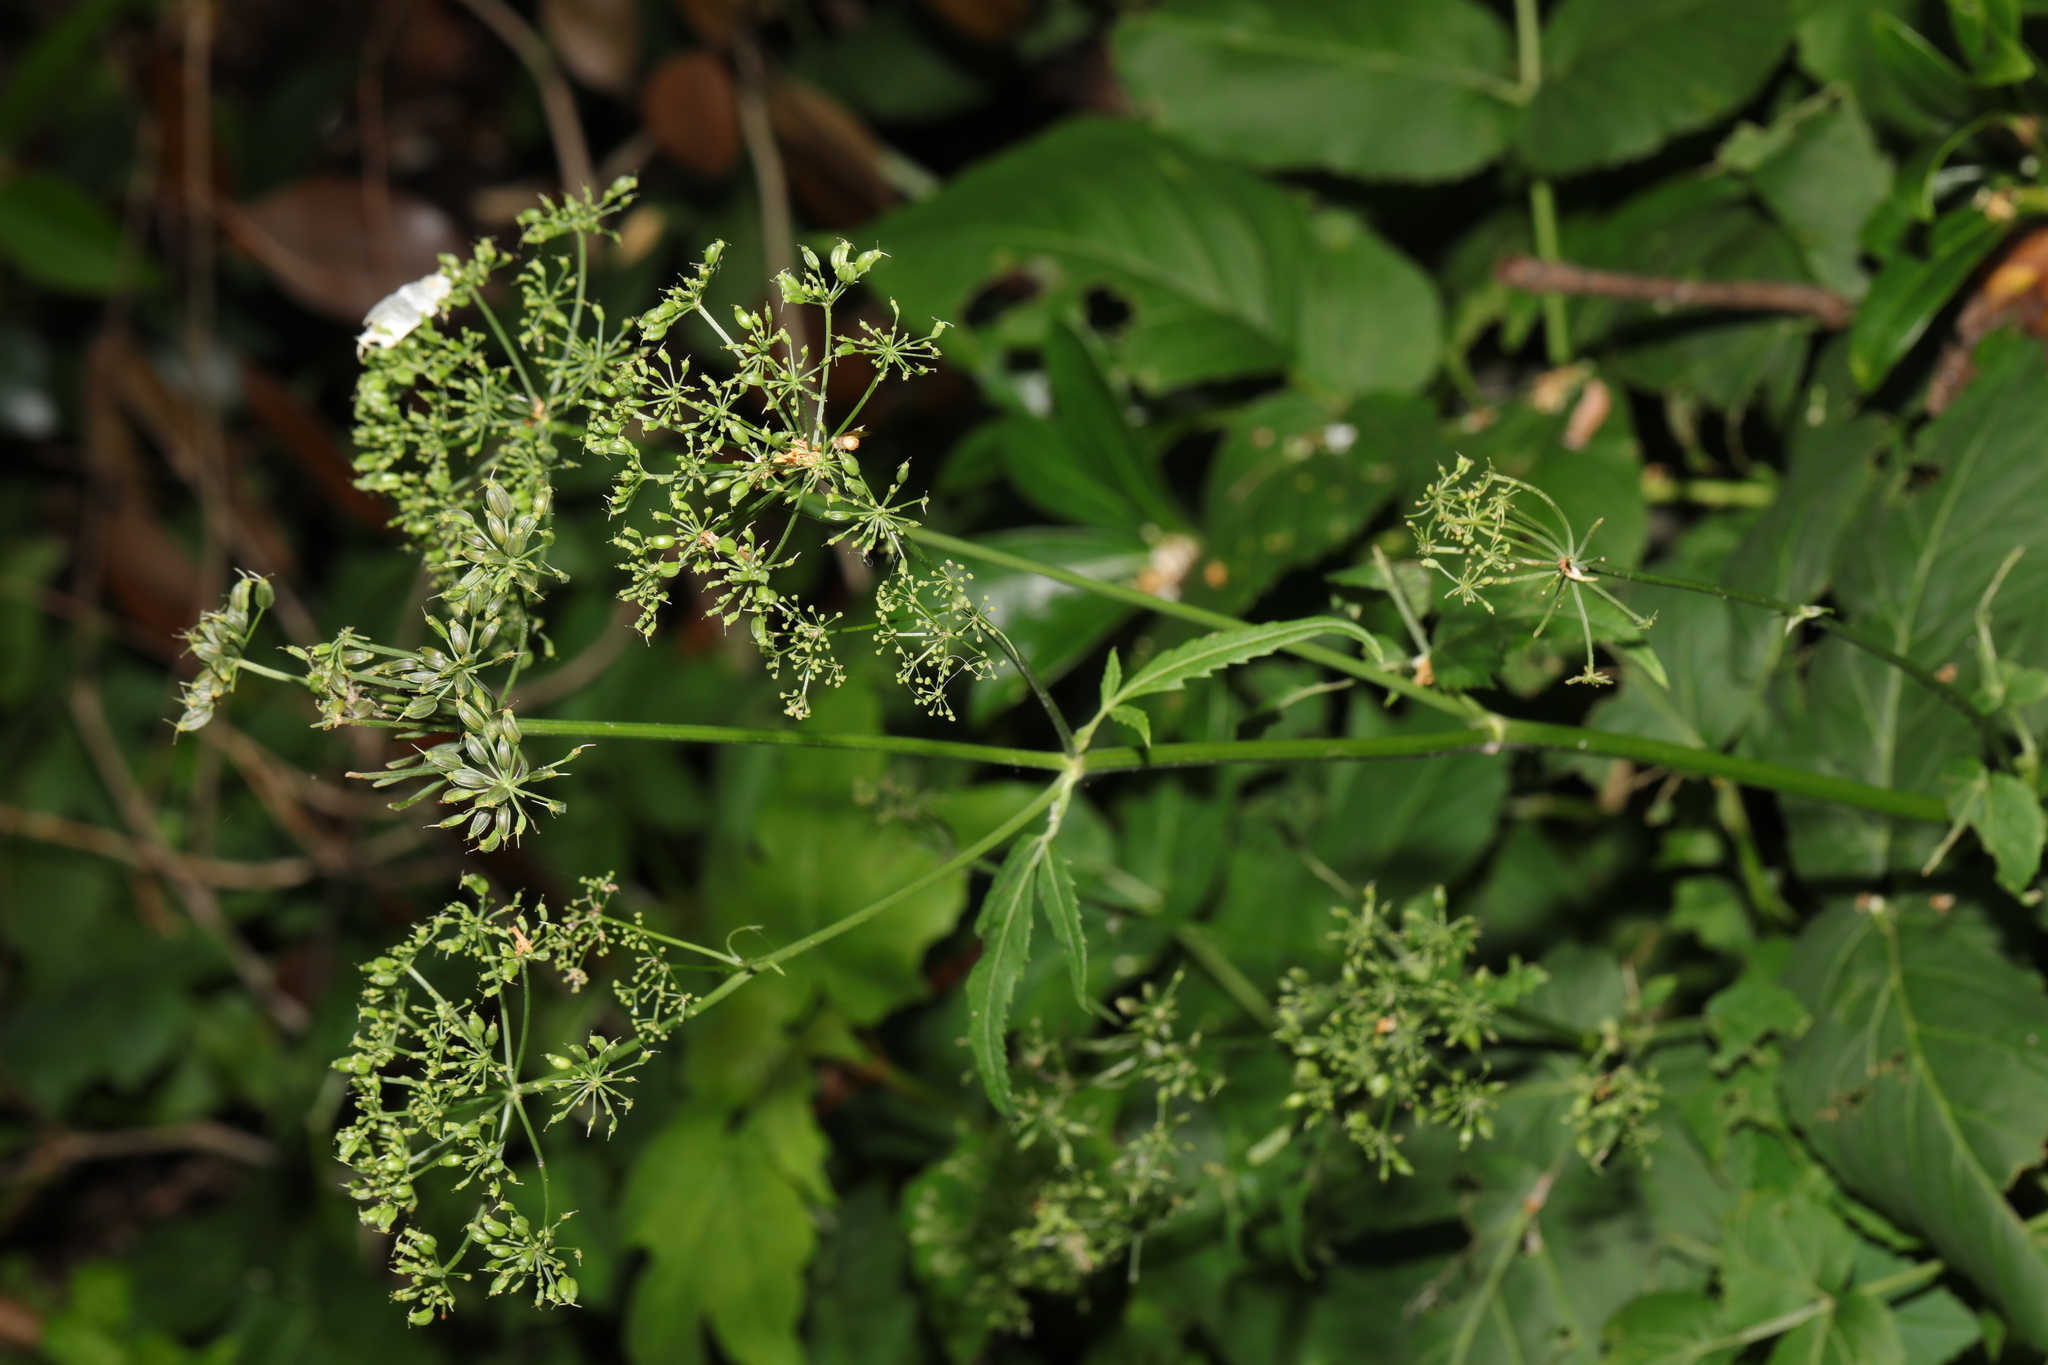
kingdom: Plantae
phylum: Tracheophyta
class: Magnoliopsida
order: Apiales
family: Apiaceae
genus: Aegopodium
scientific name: Aegopodium podagraria
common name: Ground-elder
